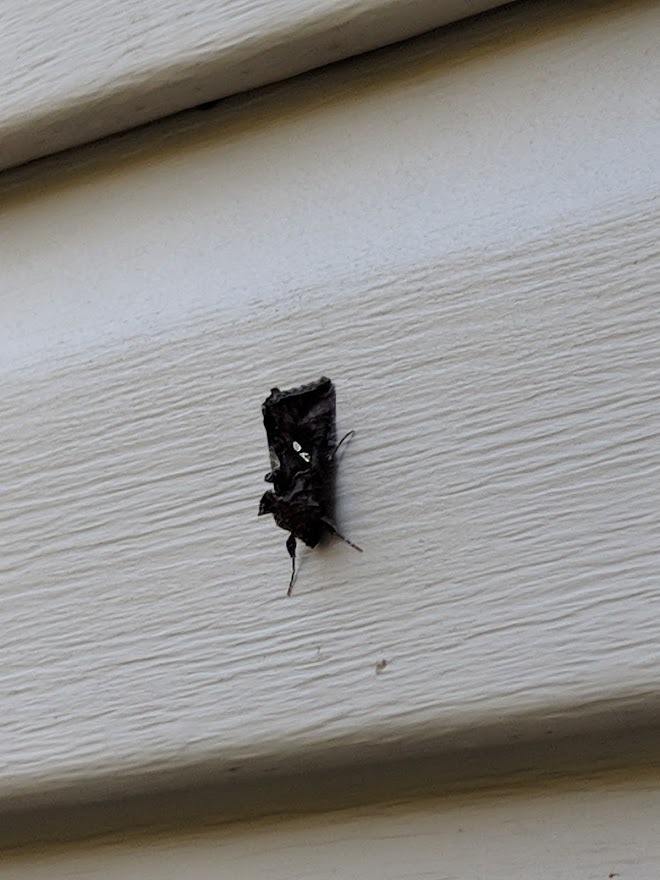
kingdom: Animalia
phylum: Arthropoda
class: Insecta
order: Lepidoptera
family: Noctuidae
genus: Autographa
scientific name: Autographa precationis
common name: Common looper moth
